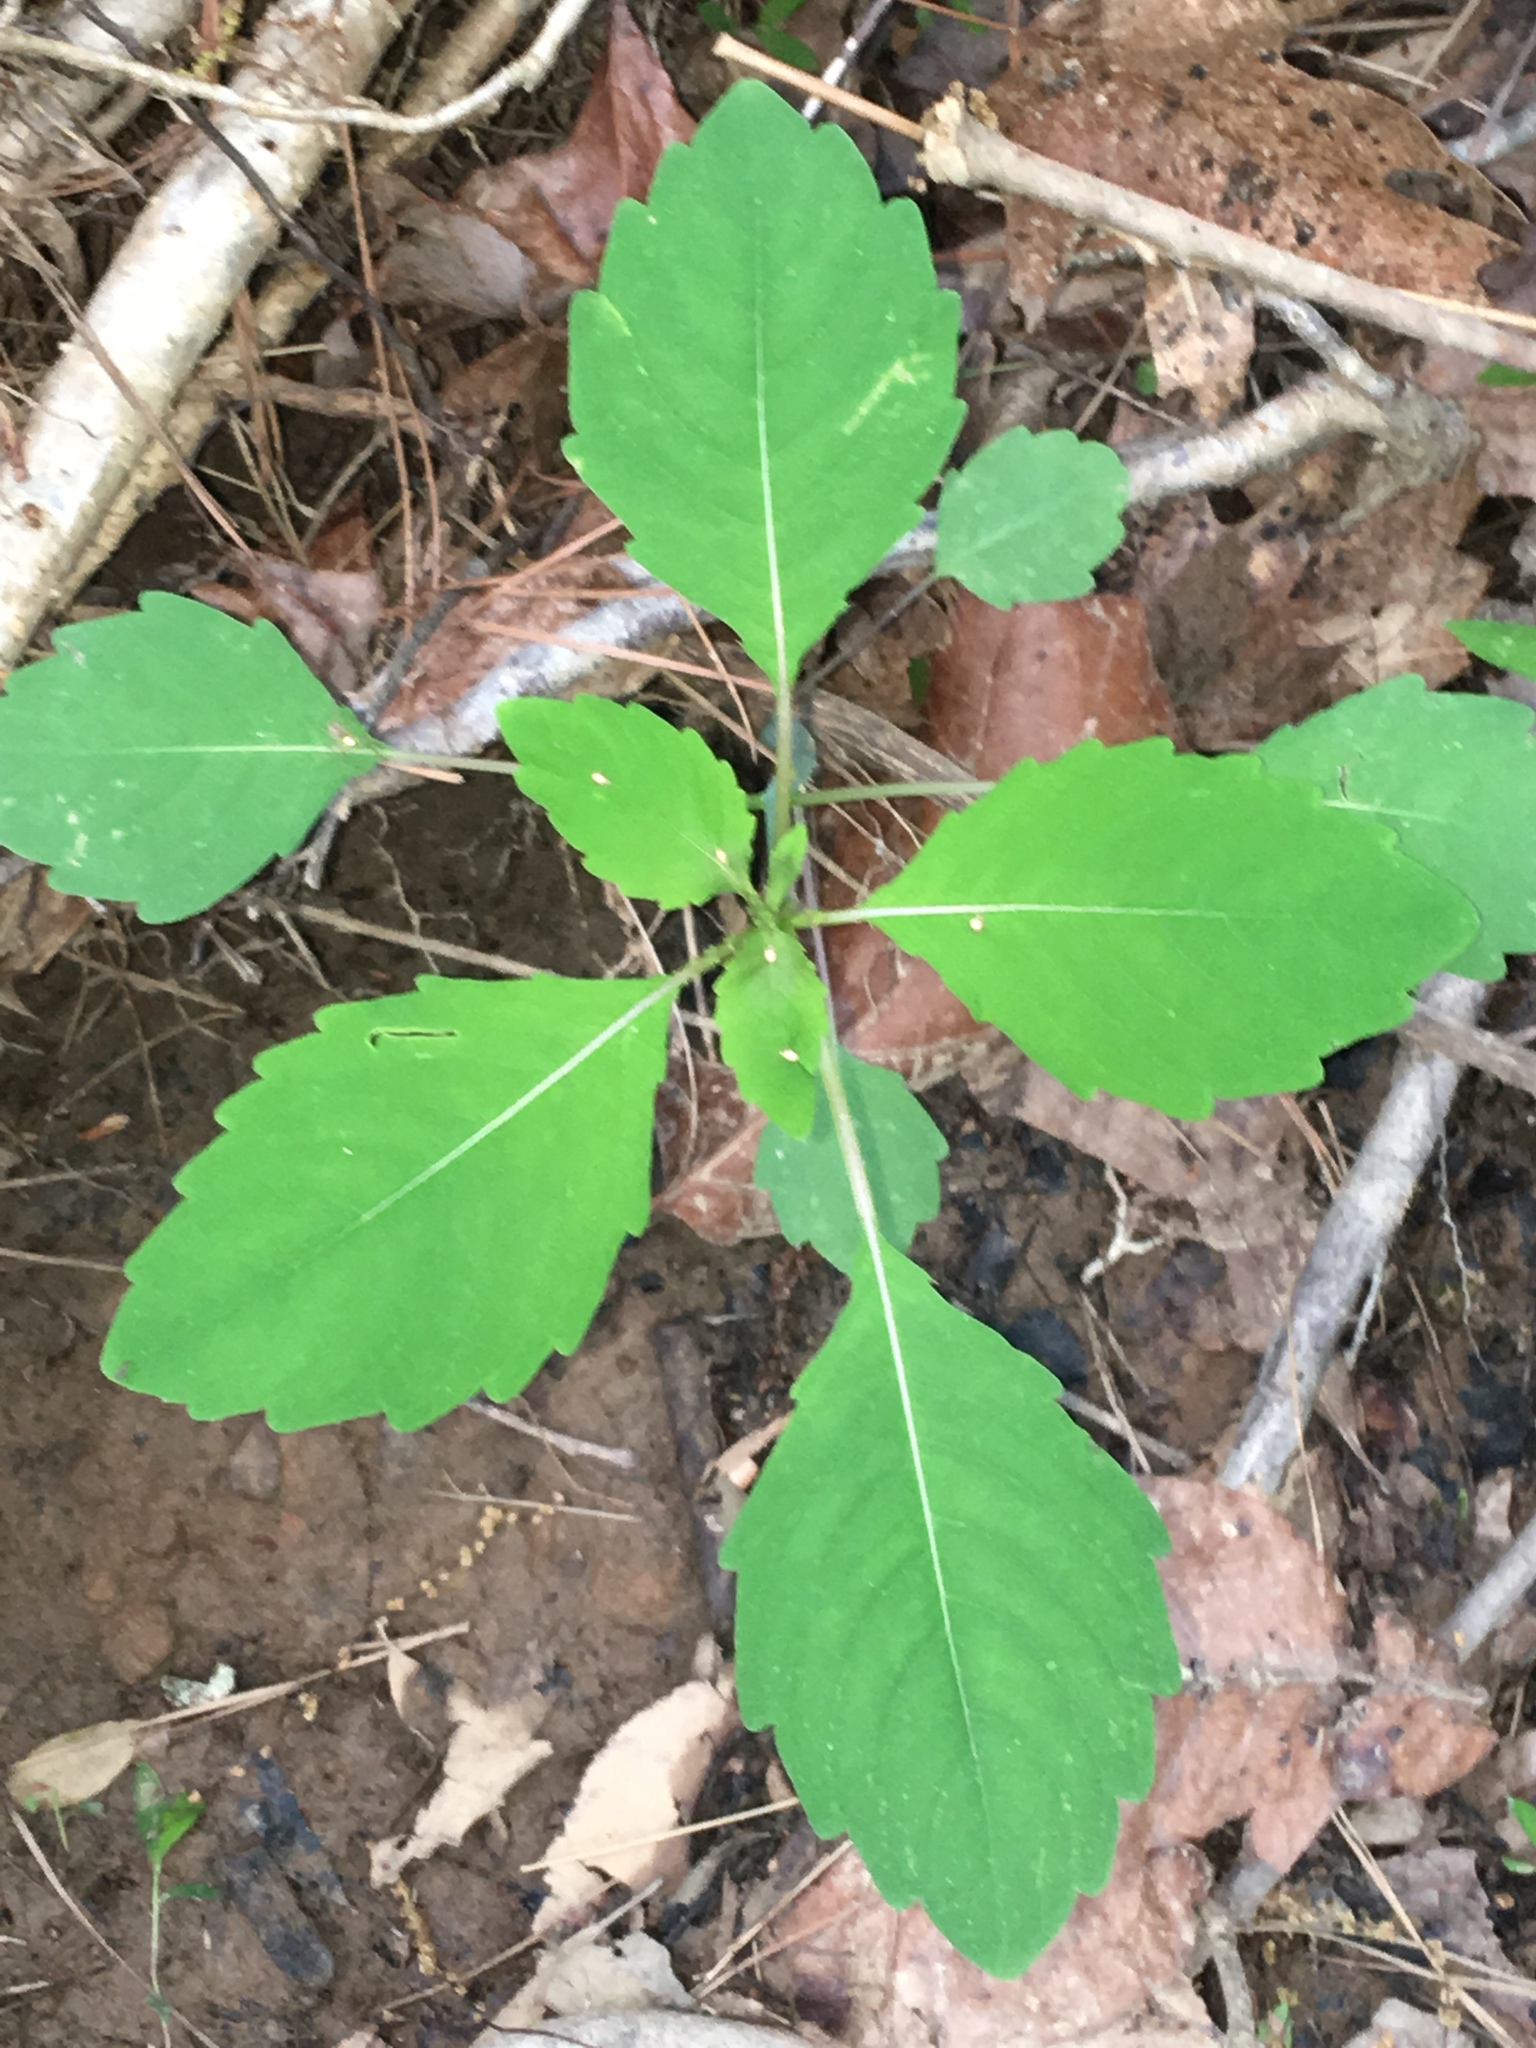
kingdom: Plantae
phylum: Tracheophyta
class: Magnoliopsida
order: Ericales
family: Balsaminaceae
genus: Impatiens
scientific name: Impatiens capensis
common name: Orange balsam
